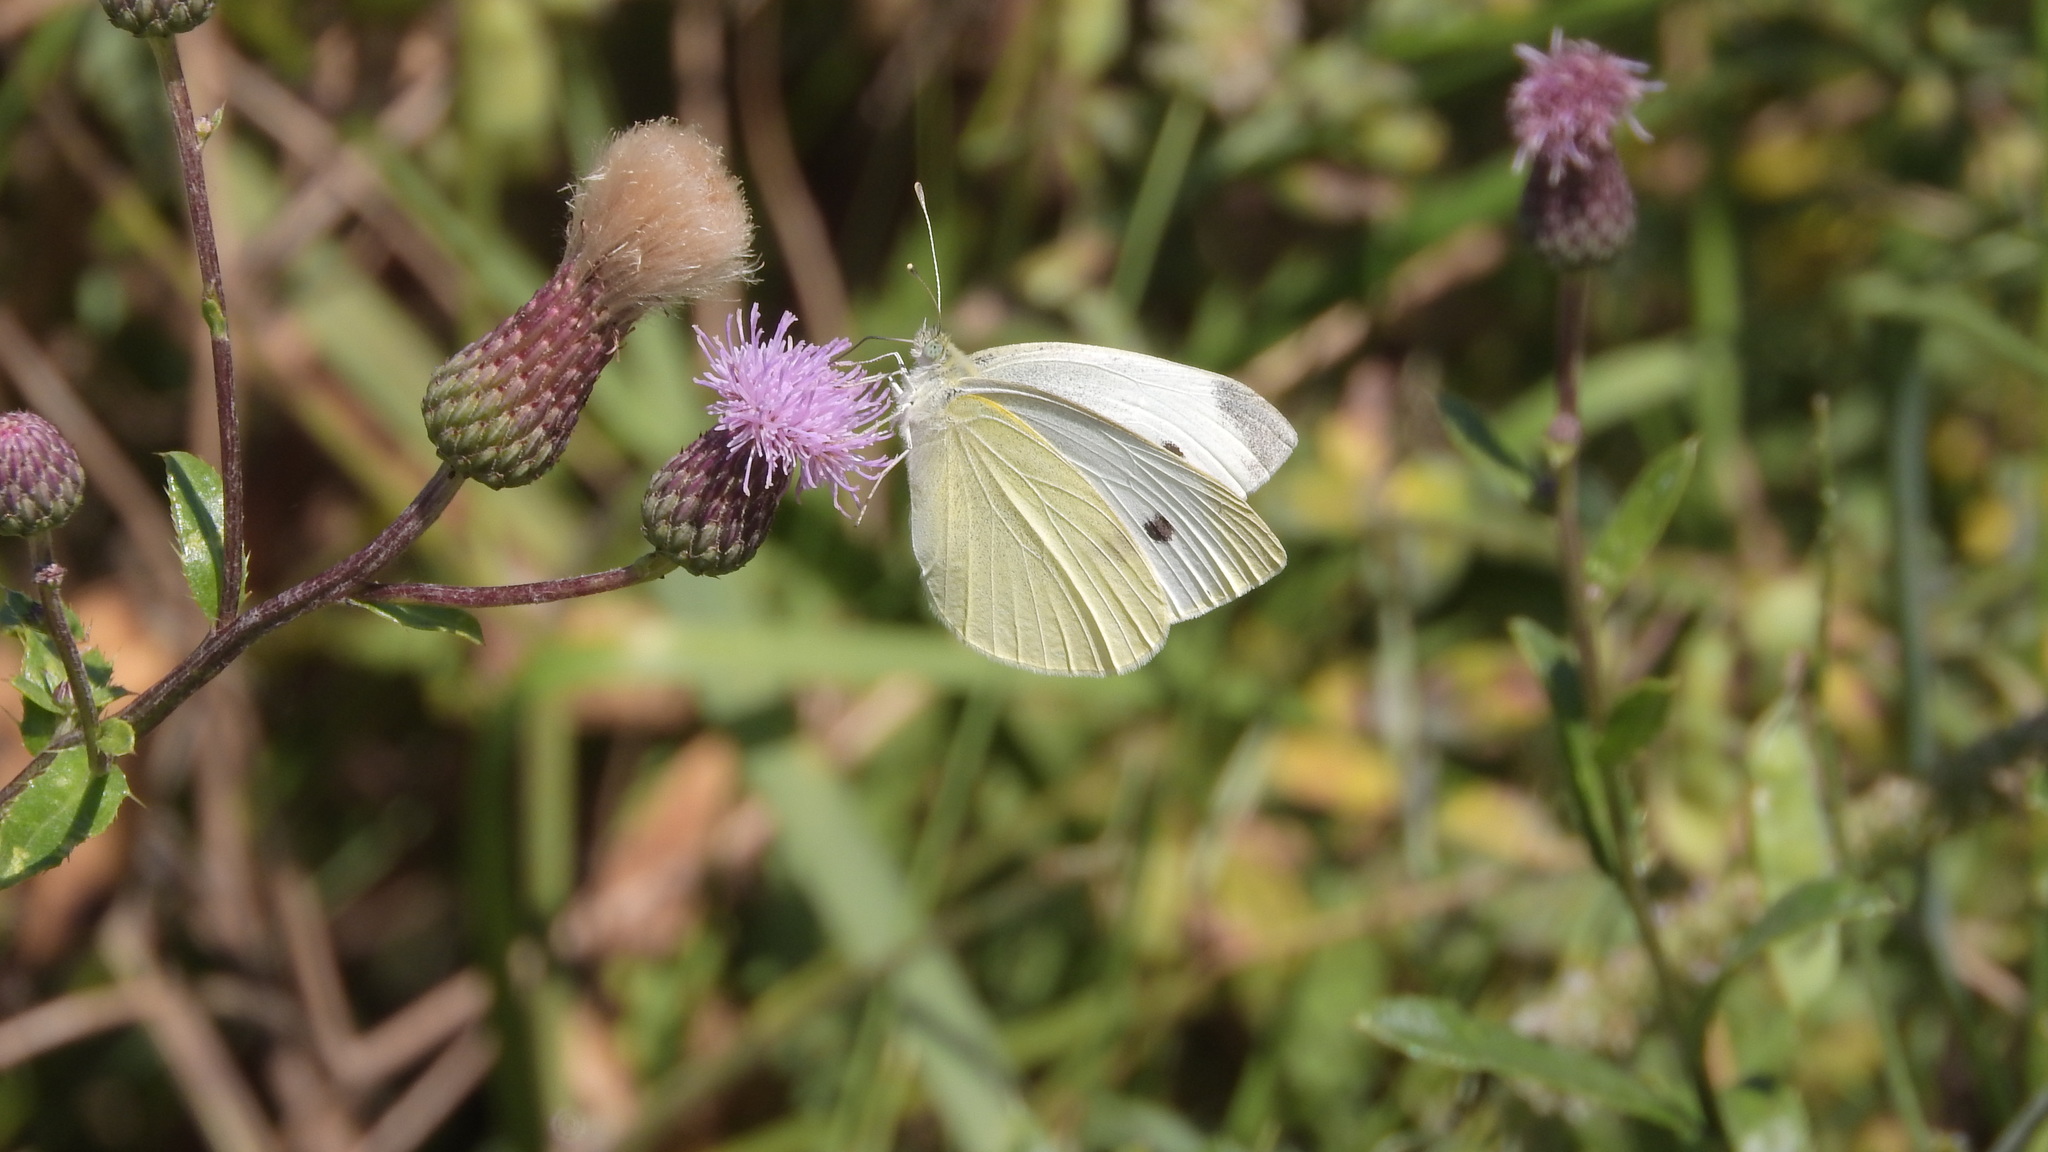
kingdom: Animalia
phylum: Arthropoda
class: Insecta
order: Lepidoptera
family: Pieridae
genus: Pieris
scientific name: Pieris rapae
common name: Small white
